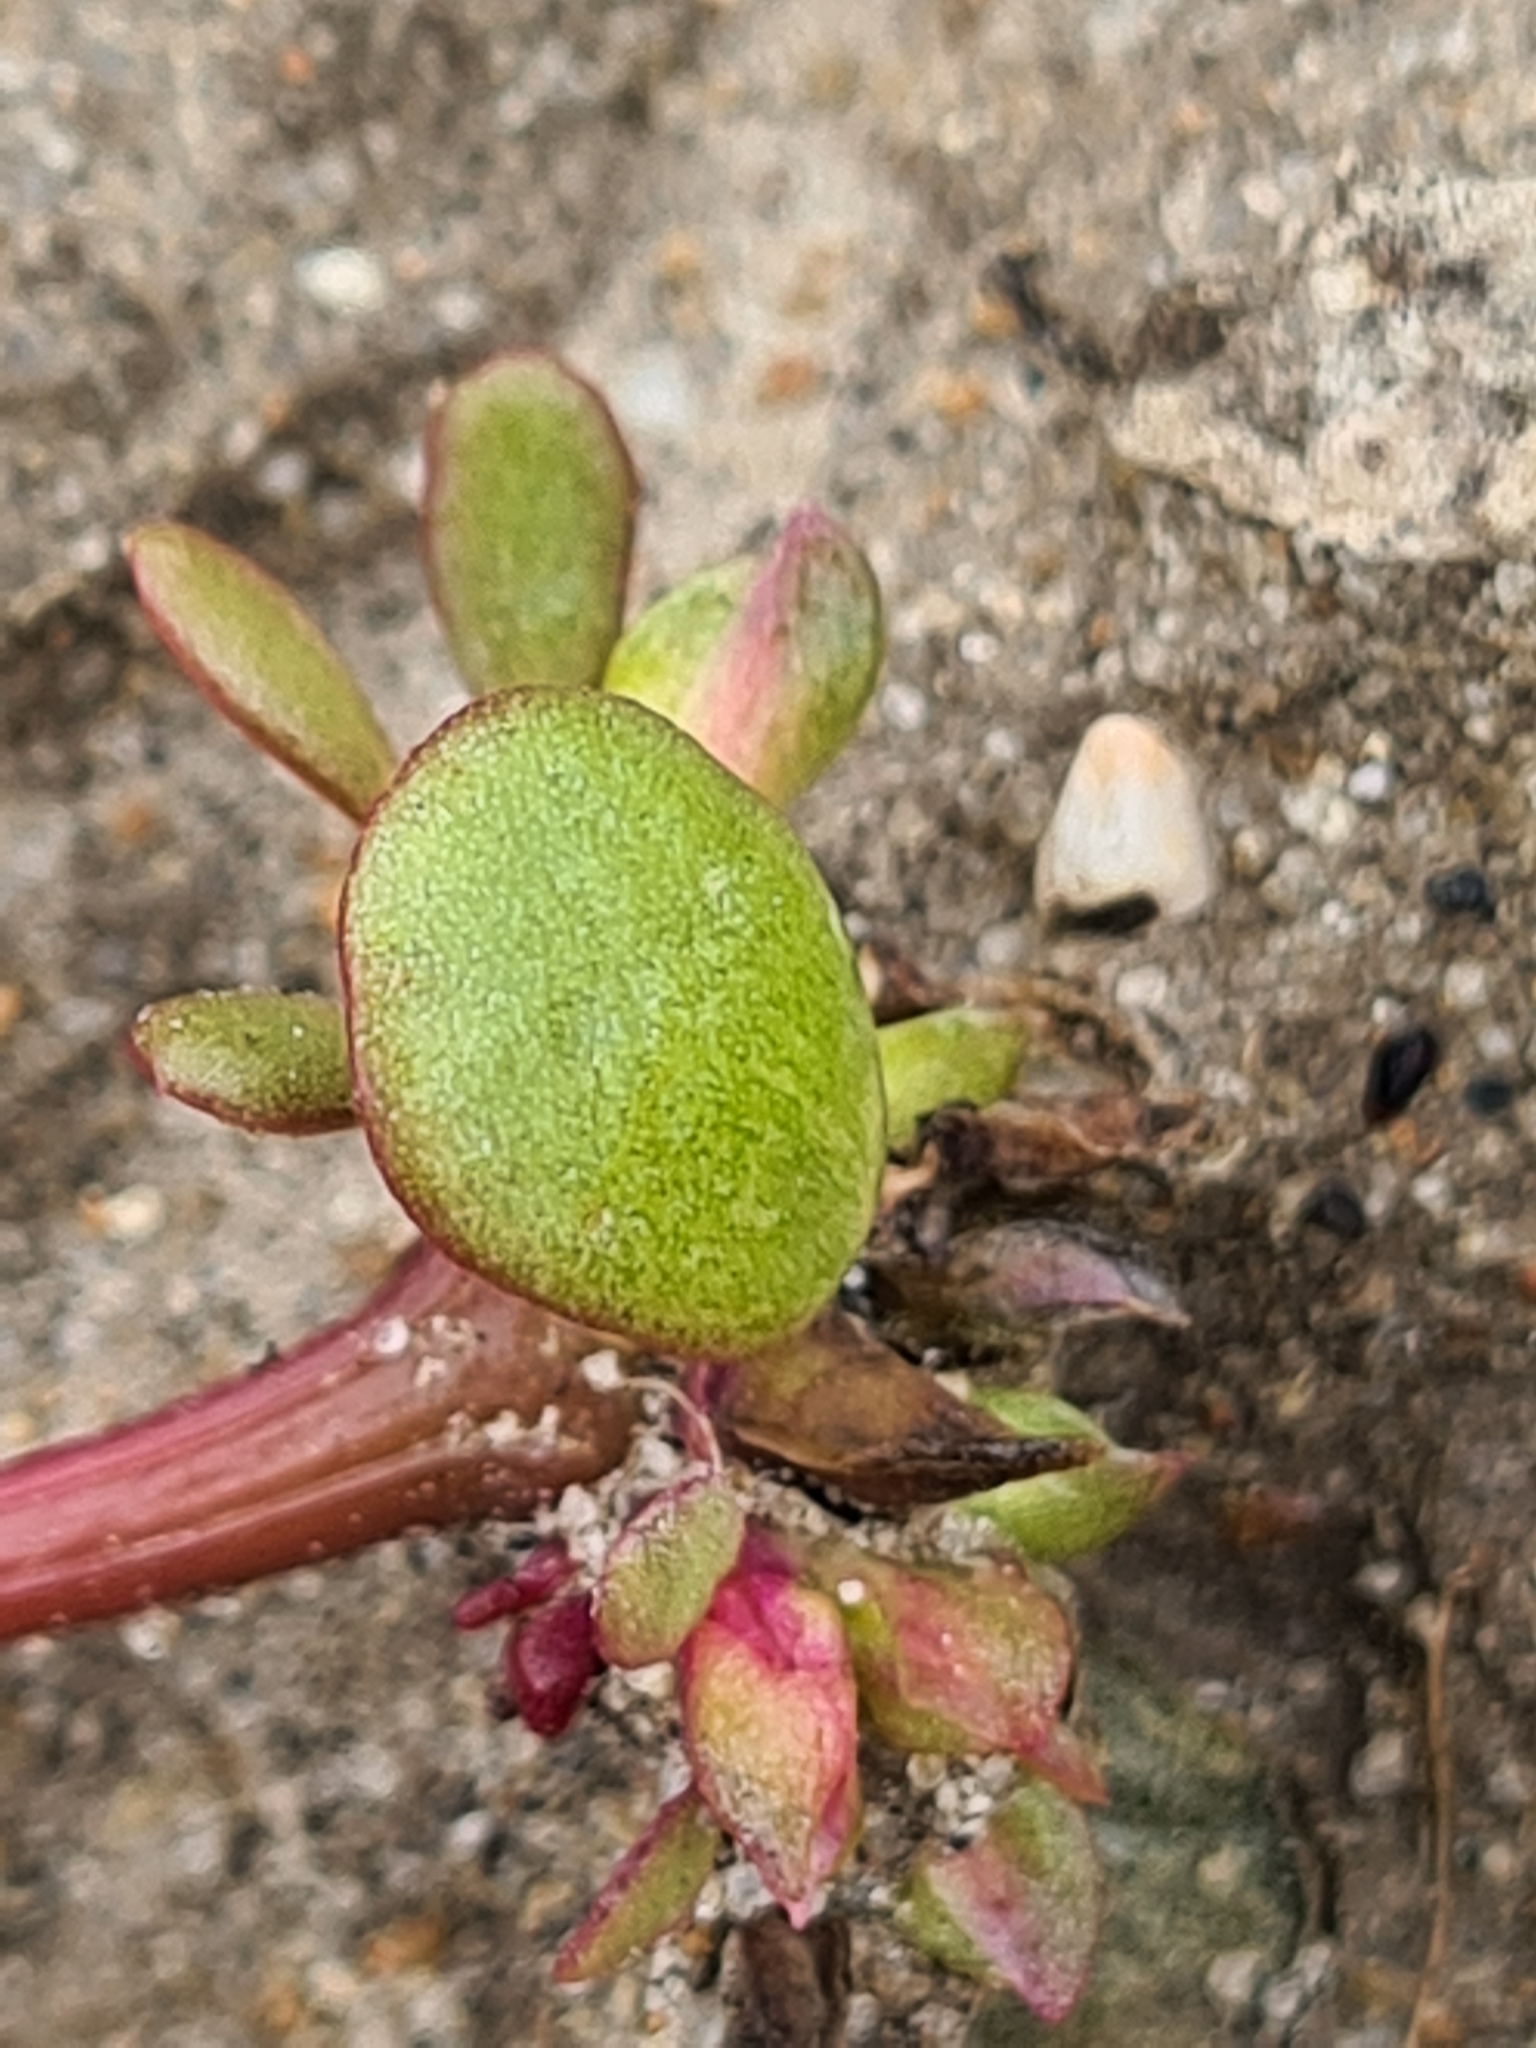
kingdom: Plantae
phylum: Tracheophyta
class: Magnoliopsida
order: Caryophyllales
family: Portulacaceae
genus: Portulaca
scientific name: Portulaca oleracea
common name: Common purslane
